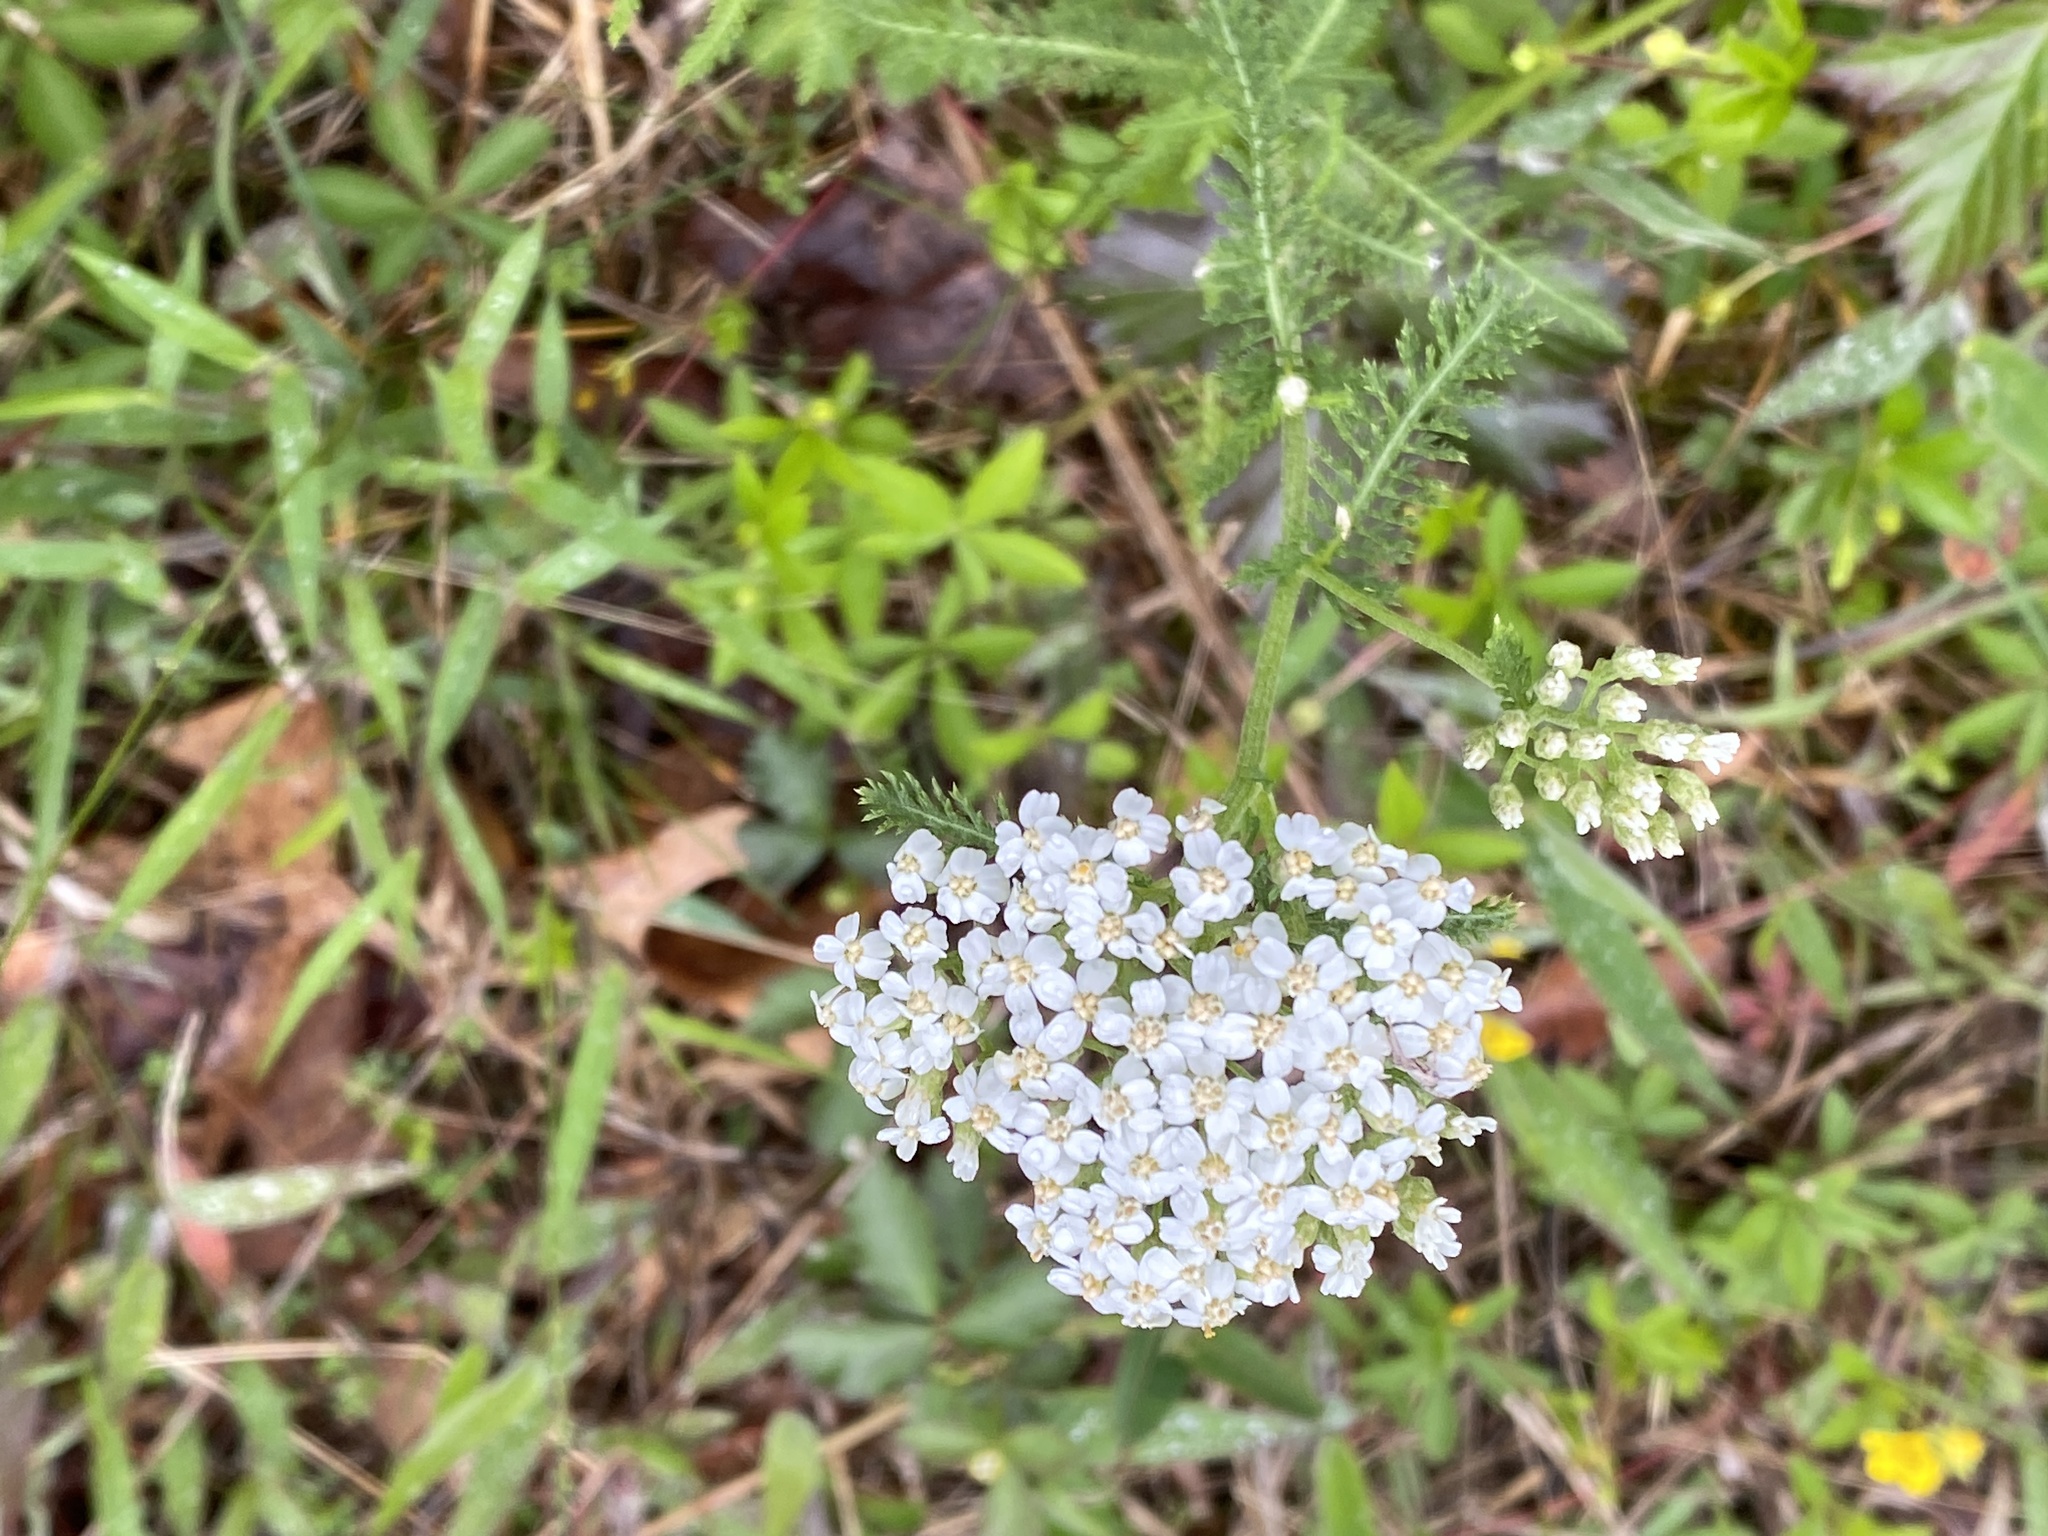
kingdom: Plantae
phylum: Tracheophyta
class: Magnoliopsida
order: Asterales
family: Asteraceae
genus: Achillea
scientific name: Achillea millefolium
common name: Yarrow
